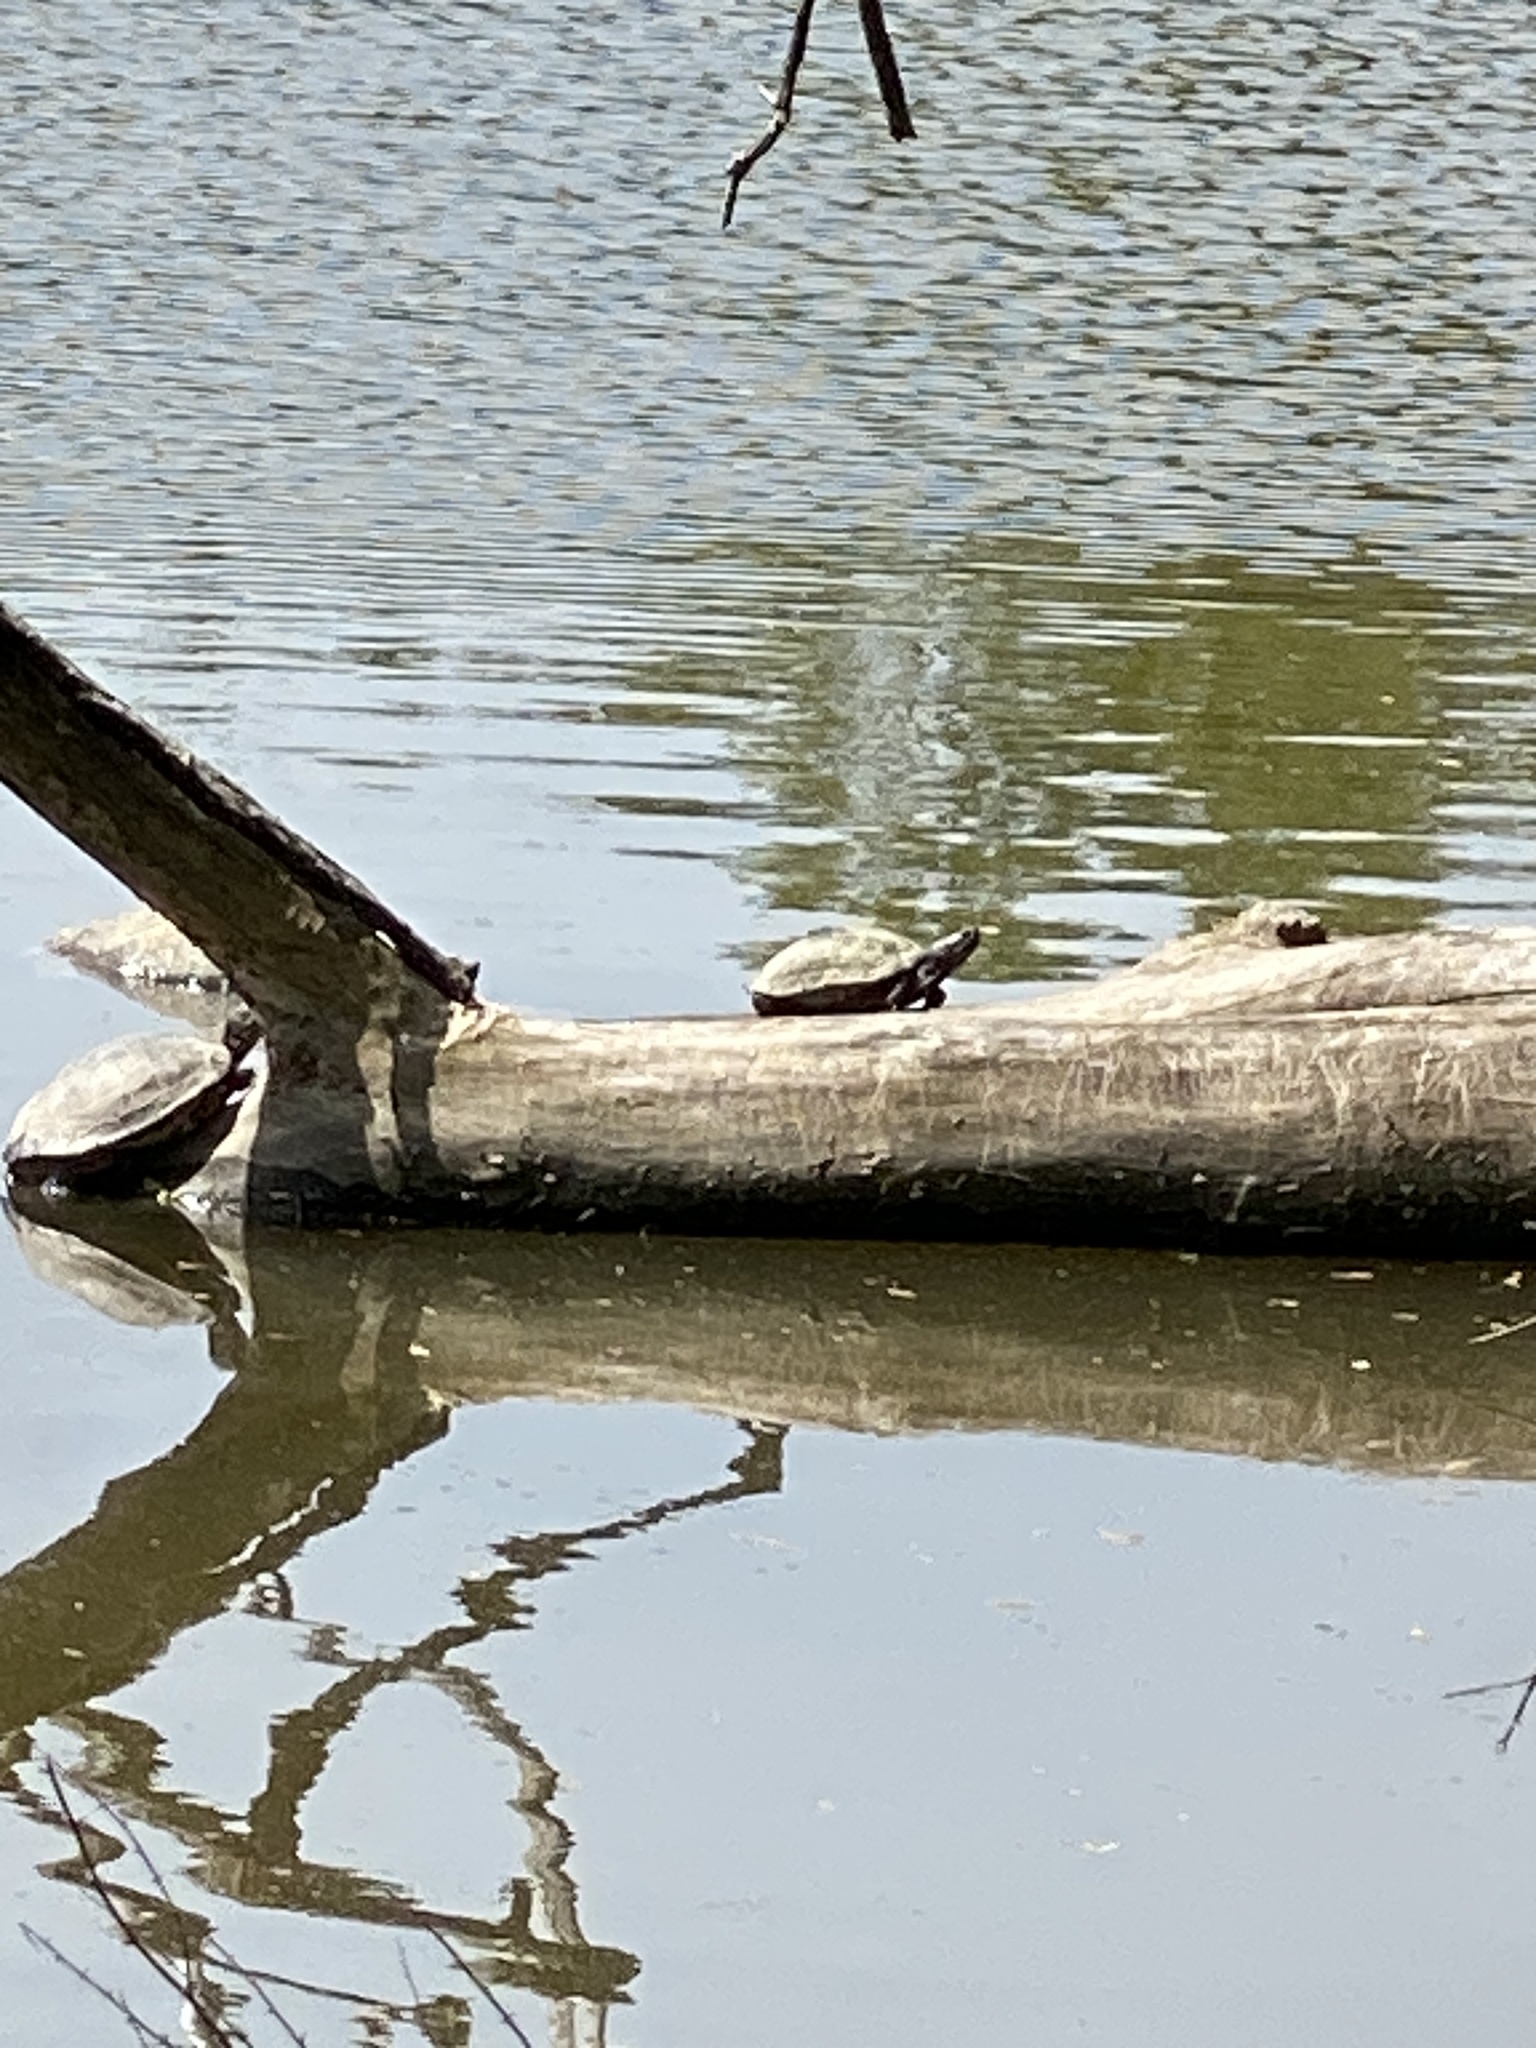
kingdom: Animalia
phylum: Chordata
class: Testudines
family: Emydidae
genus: Trachemys
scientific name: Trachemys scripta
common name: Slider
